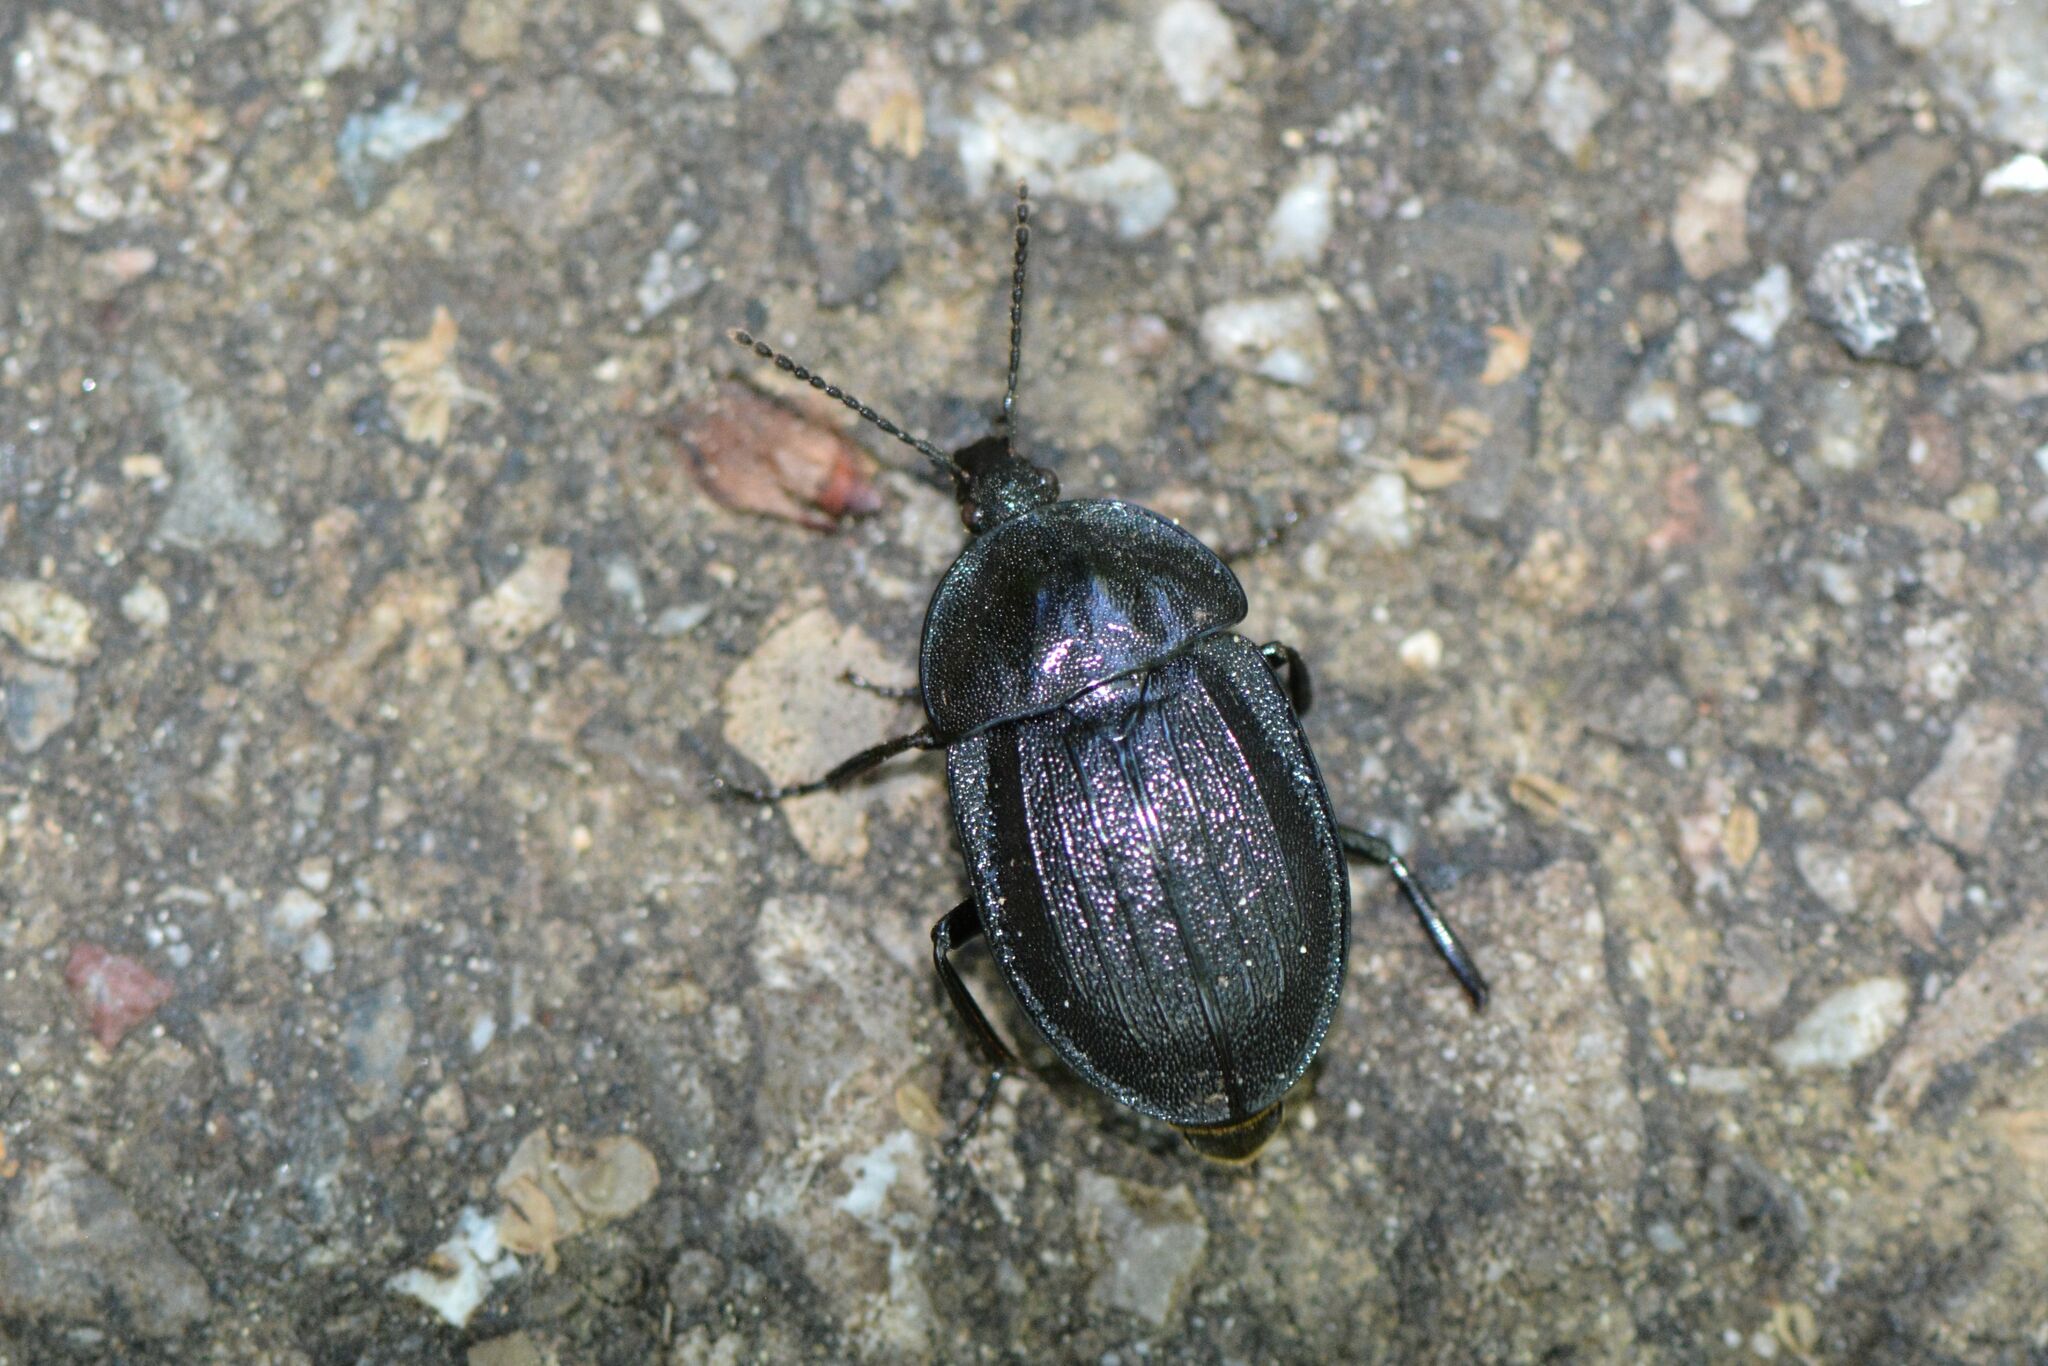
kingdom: Animalia
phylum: Arthropoda
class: Insecta
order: Coleoptera
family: Staphylinidae
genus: Silpha
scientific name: Silpha atrata
